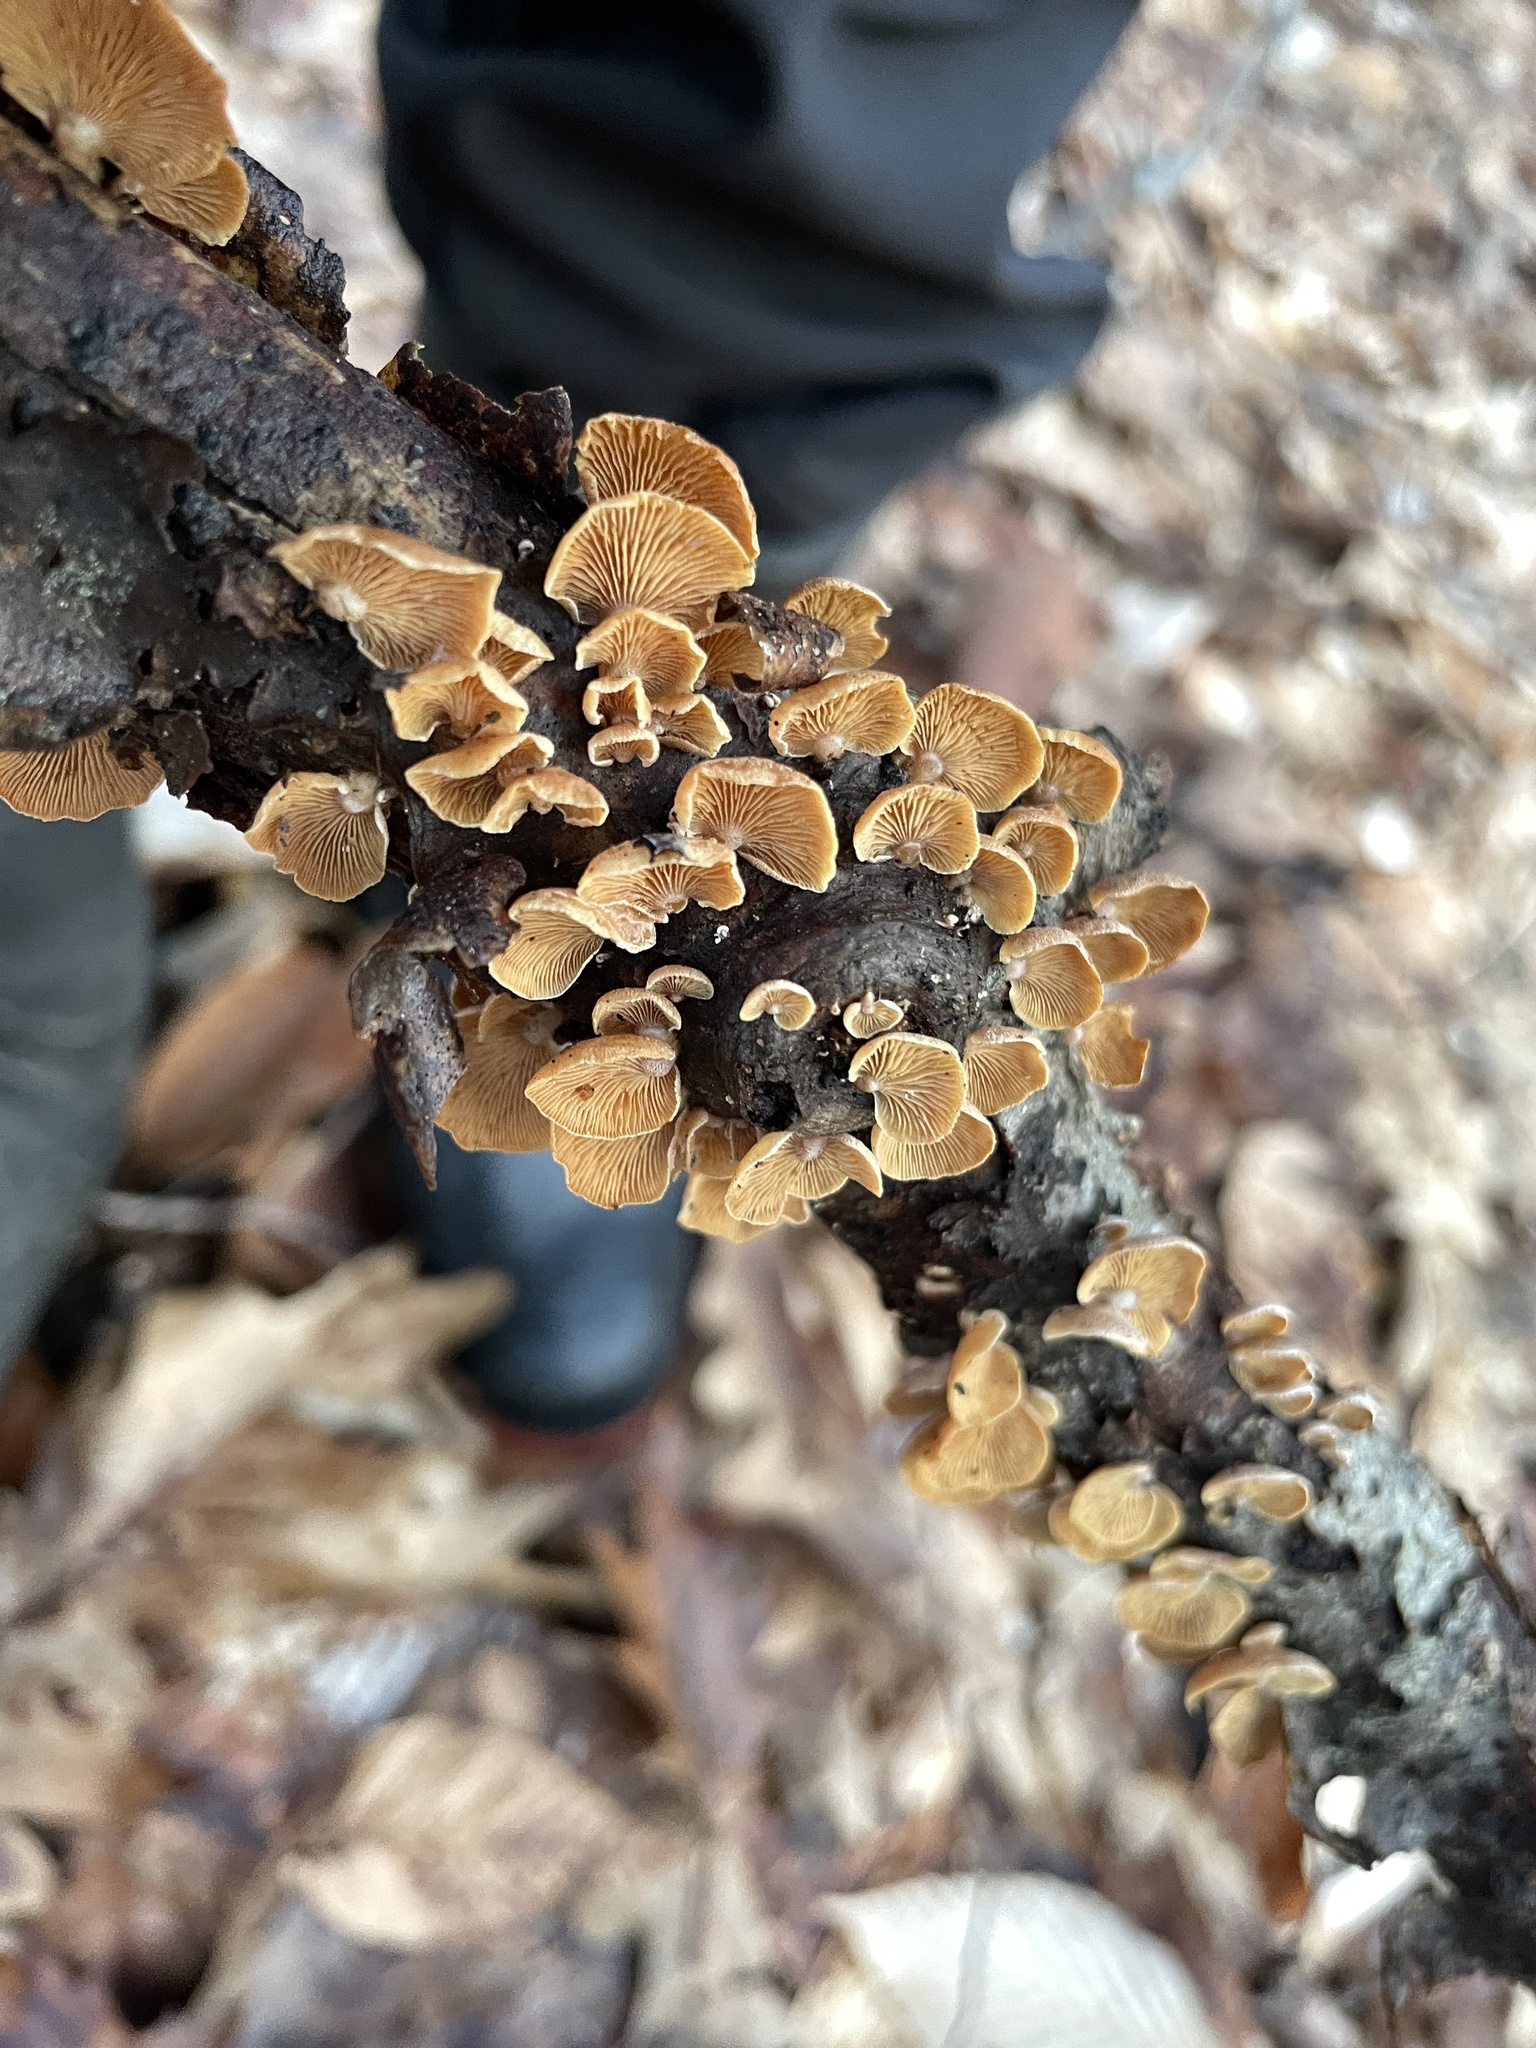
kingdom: Fungi
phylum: Basidiomycota
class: Agaricomycetes
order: Agaricales
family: Mycenaceae
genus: Panellus
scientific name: Panellus stipticus
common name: Bitter oysterling
